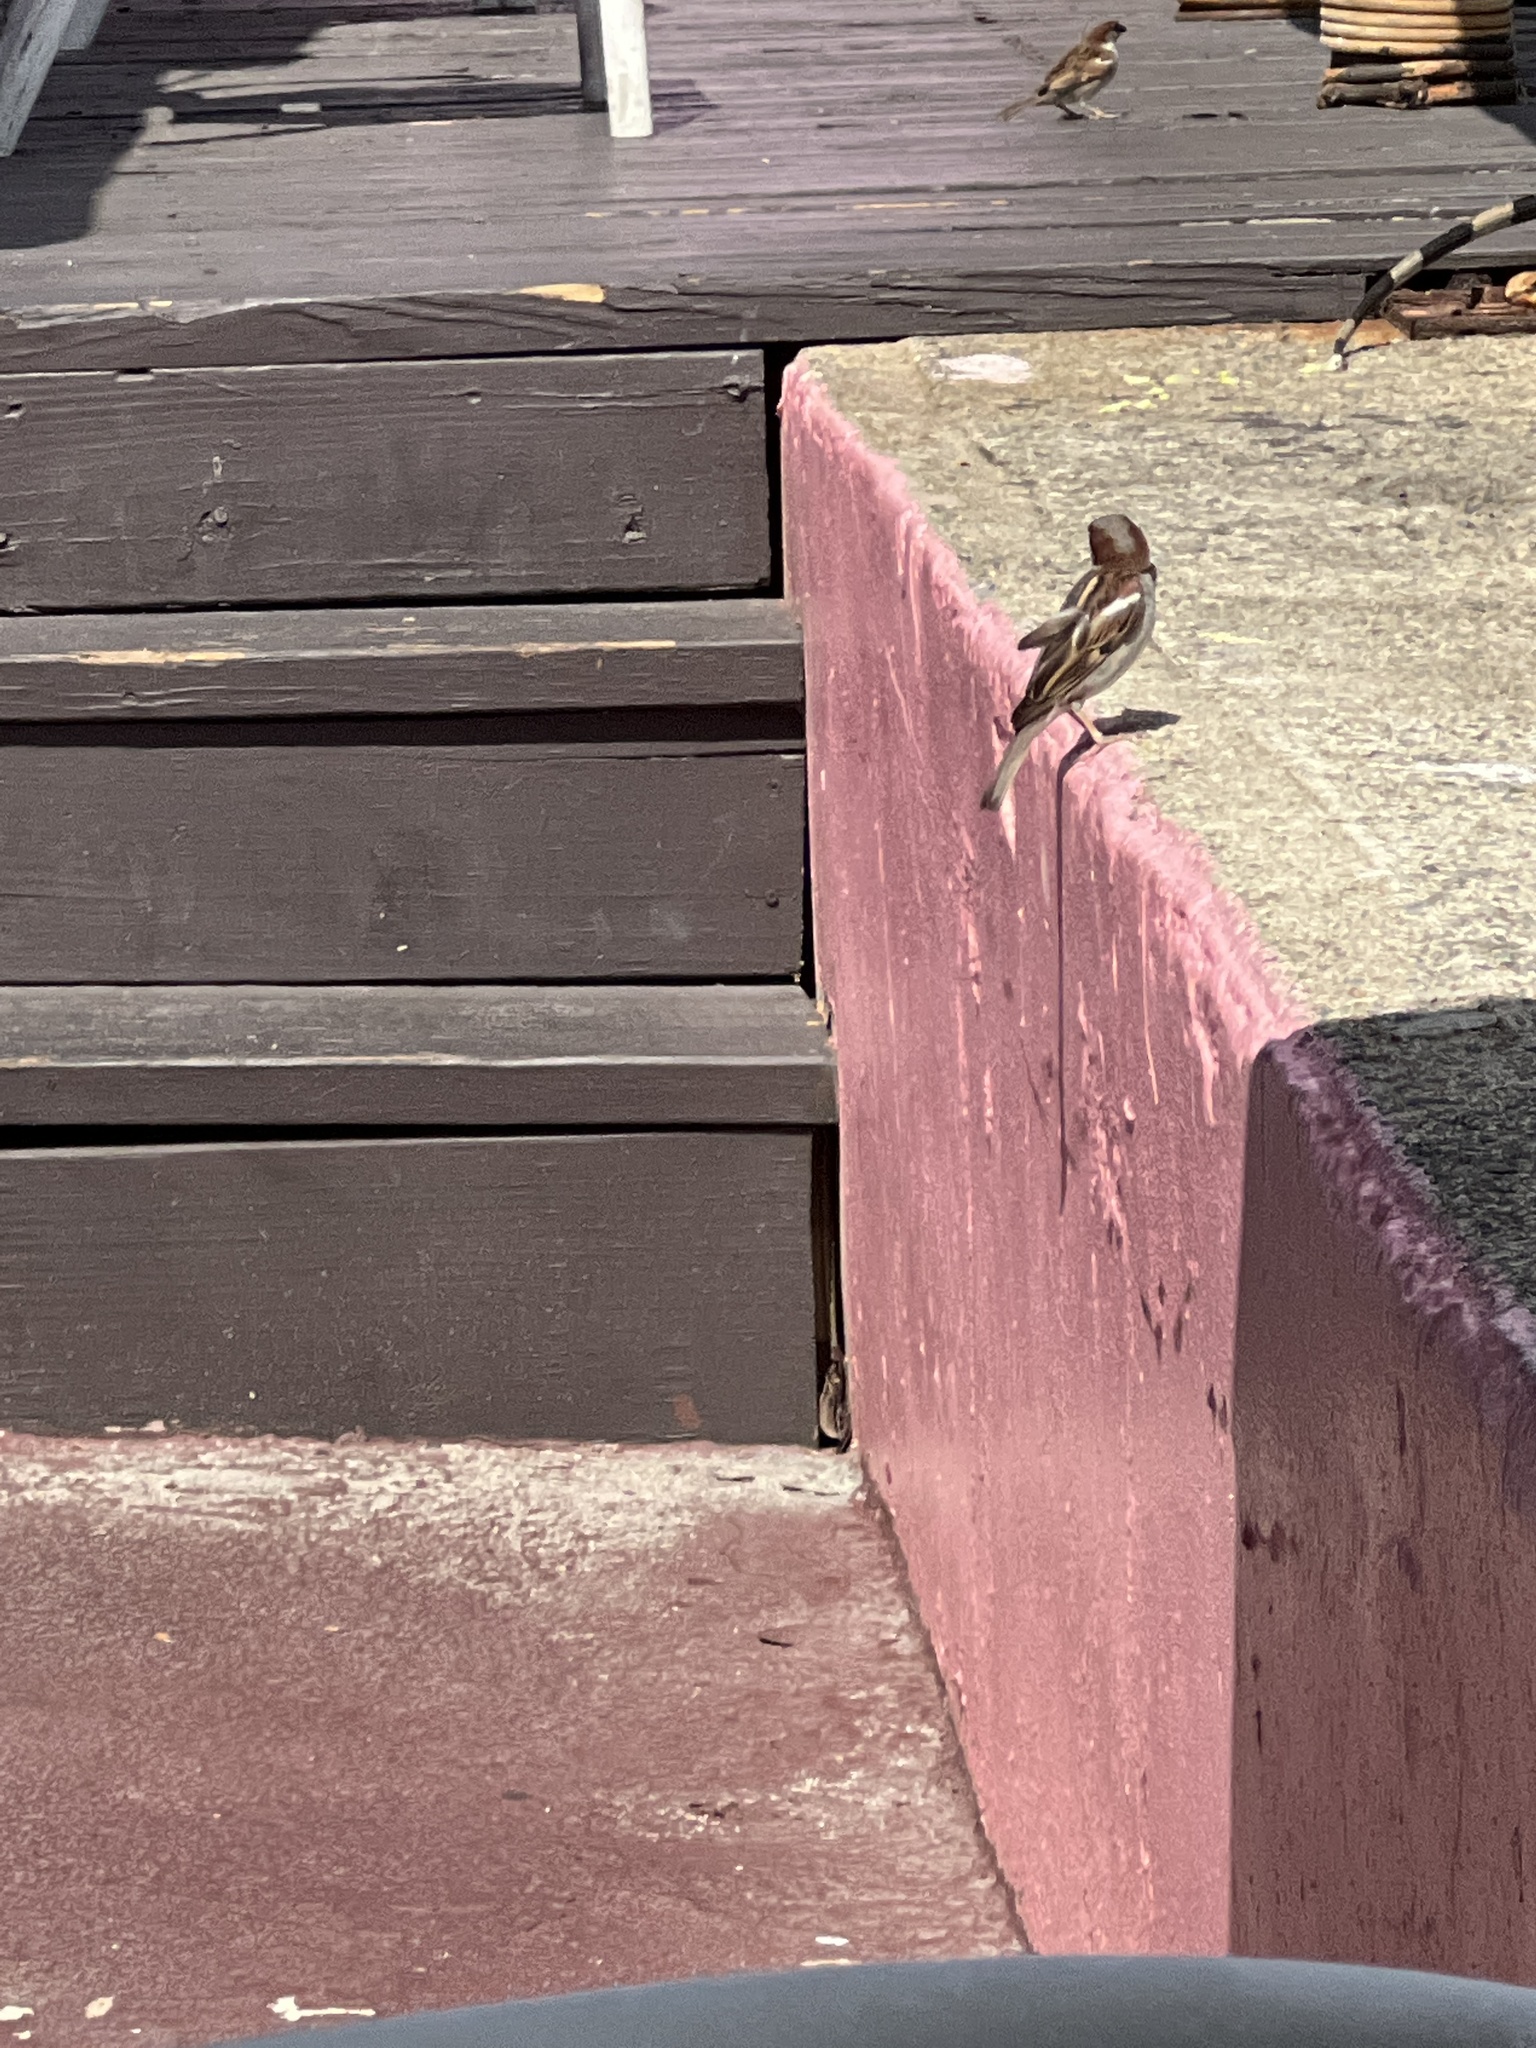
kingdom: Animalia
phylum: Chordata
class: Aves
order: Passeriformes
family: Passeridae
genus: Passer
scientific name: Passer domesticus
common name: House sparrow
